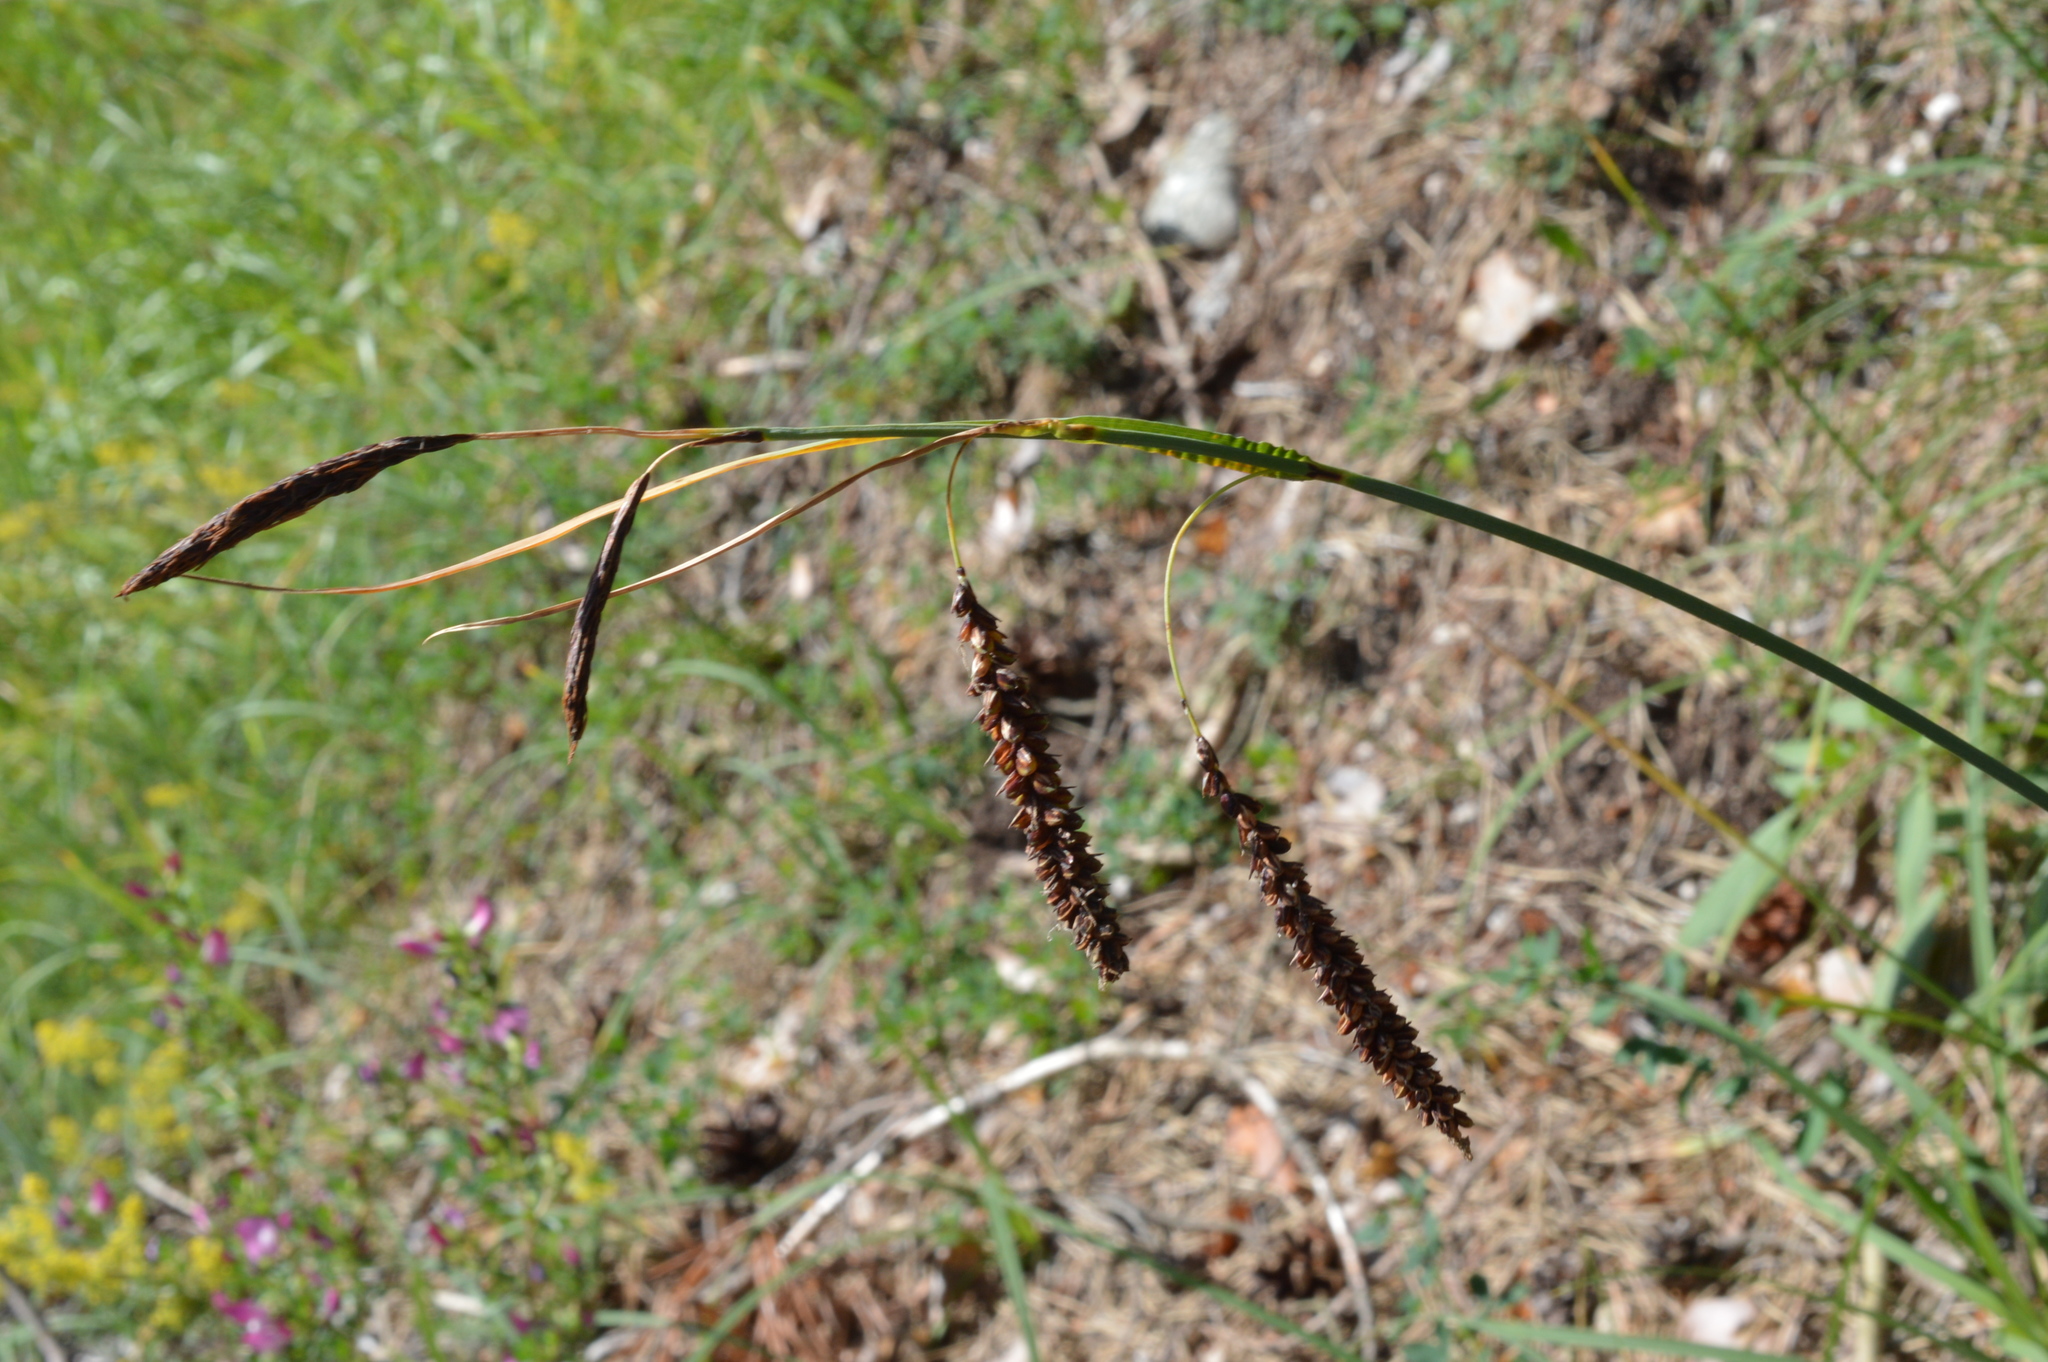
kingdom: Plantae
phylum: Tracheophyta
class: Liliopsida
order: Poales
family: Cyperaceae
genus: Carex
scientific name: Carex flacca
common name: Glaucous sedge
